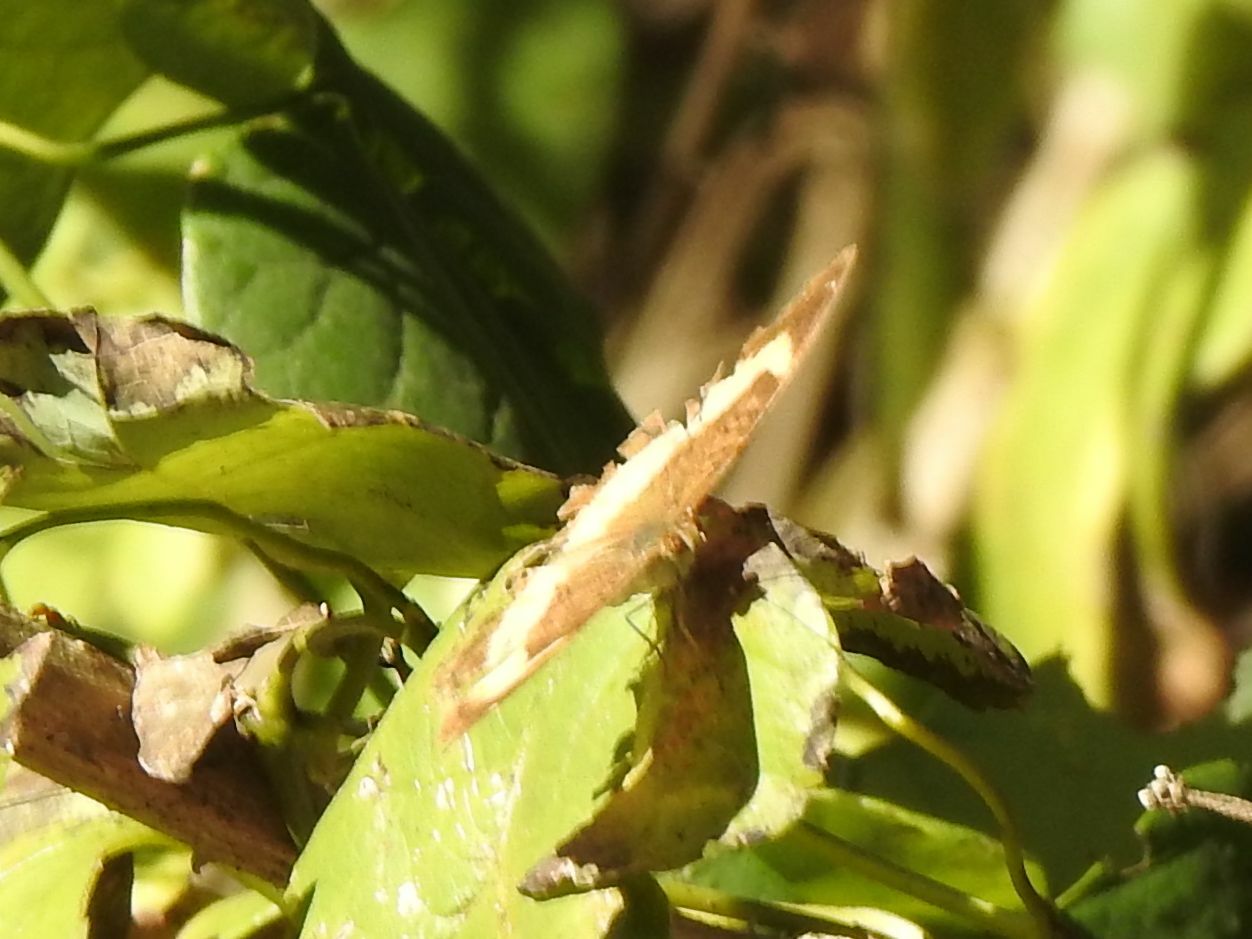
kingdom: Animalia
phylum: Arthropoda
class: Insecta
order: Lepidoptera
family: Nymphalidae
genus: Junonia
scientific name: Junonia terea
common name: Soldier pansy
